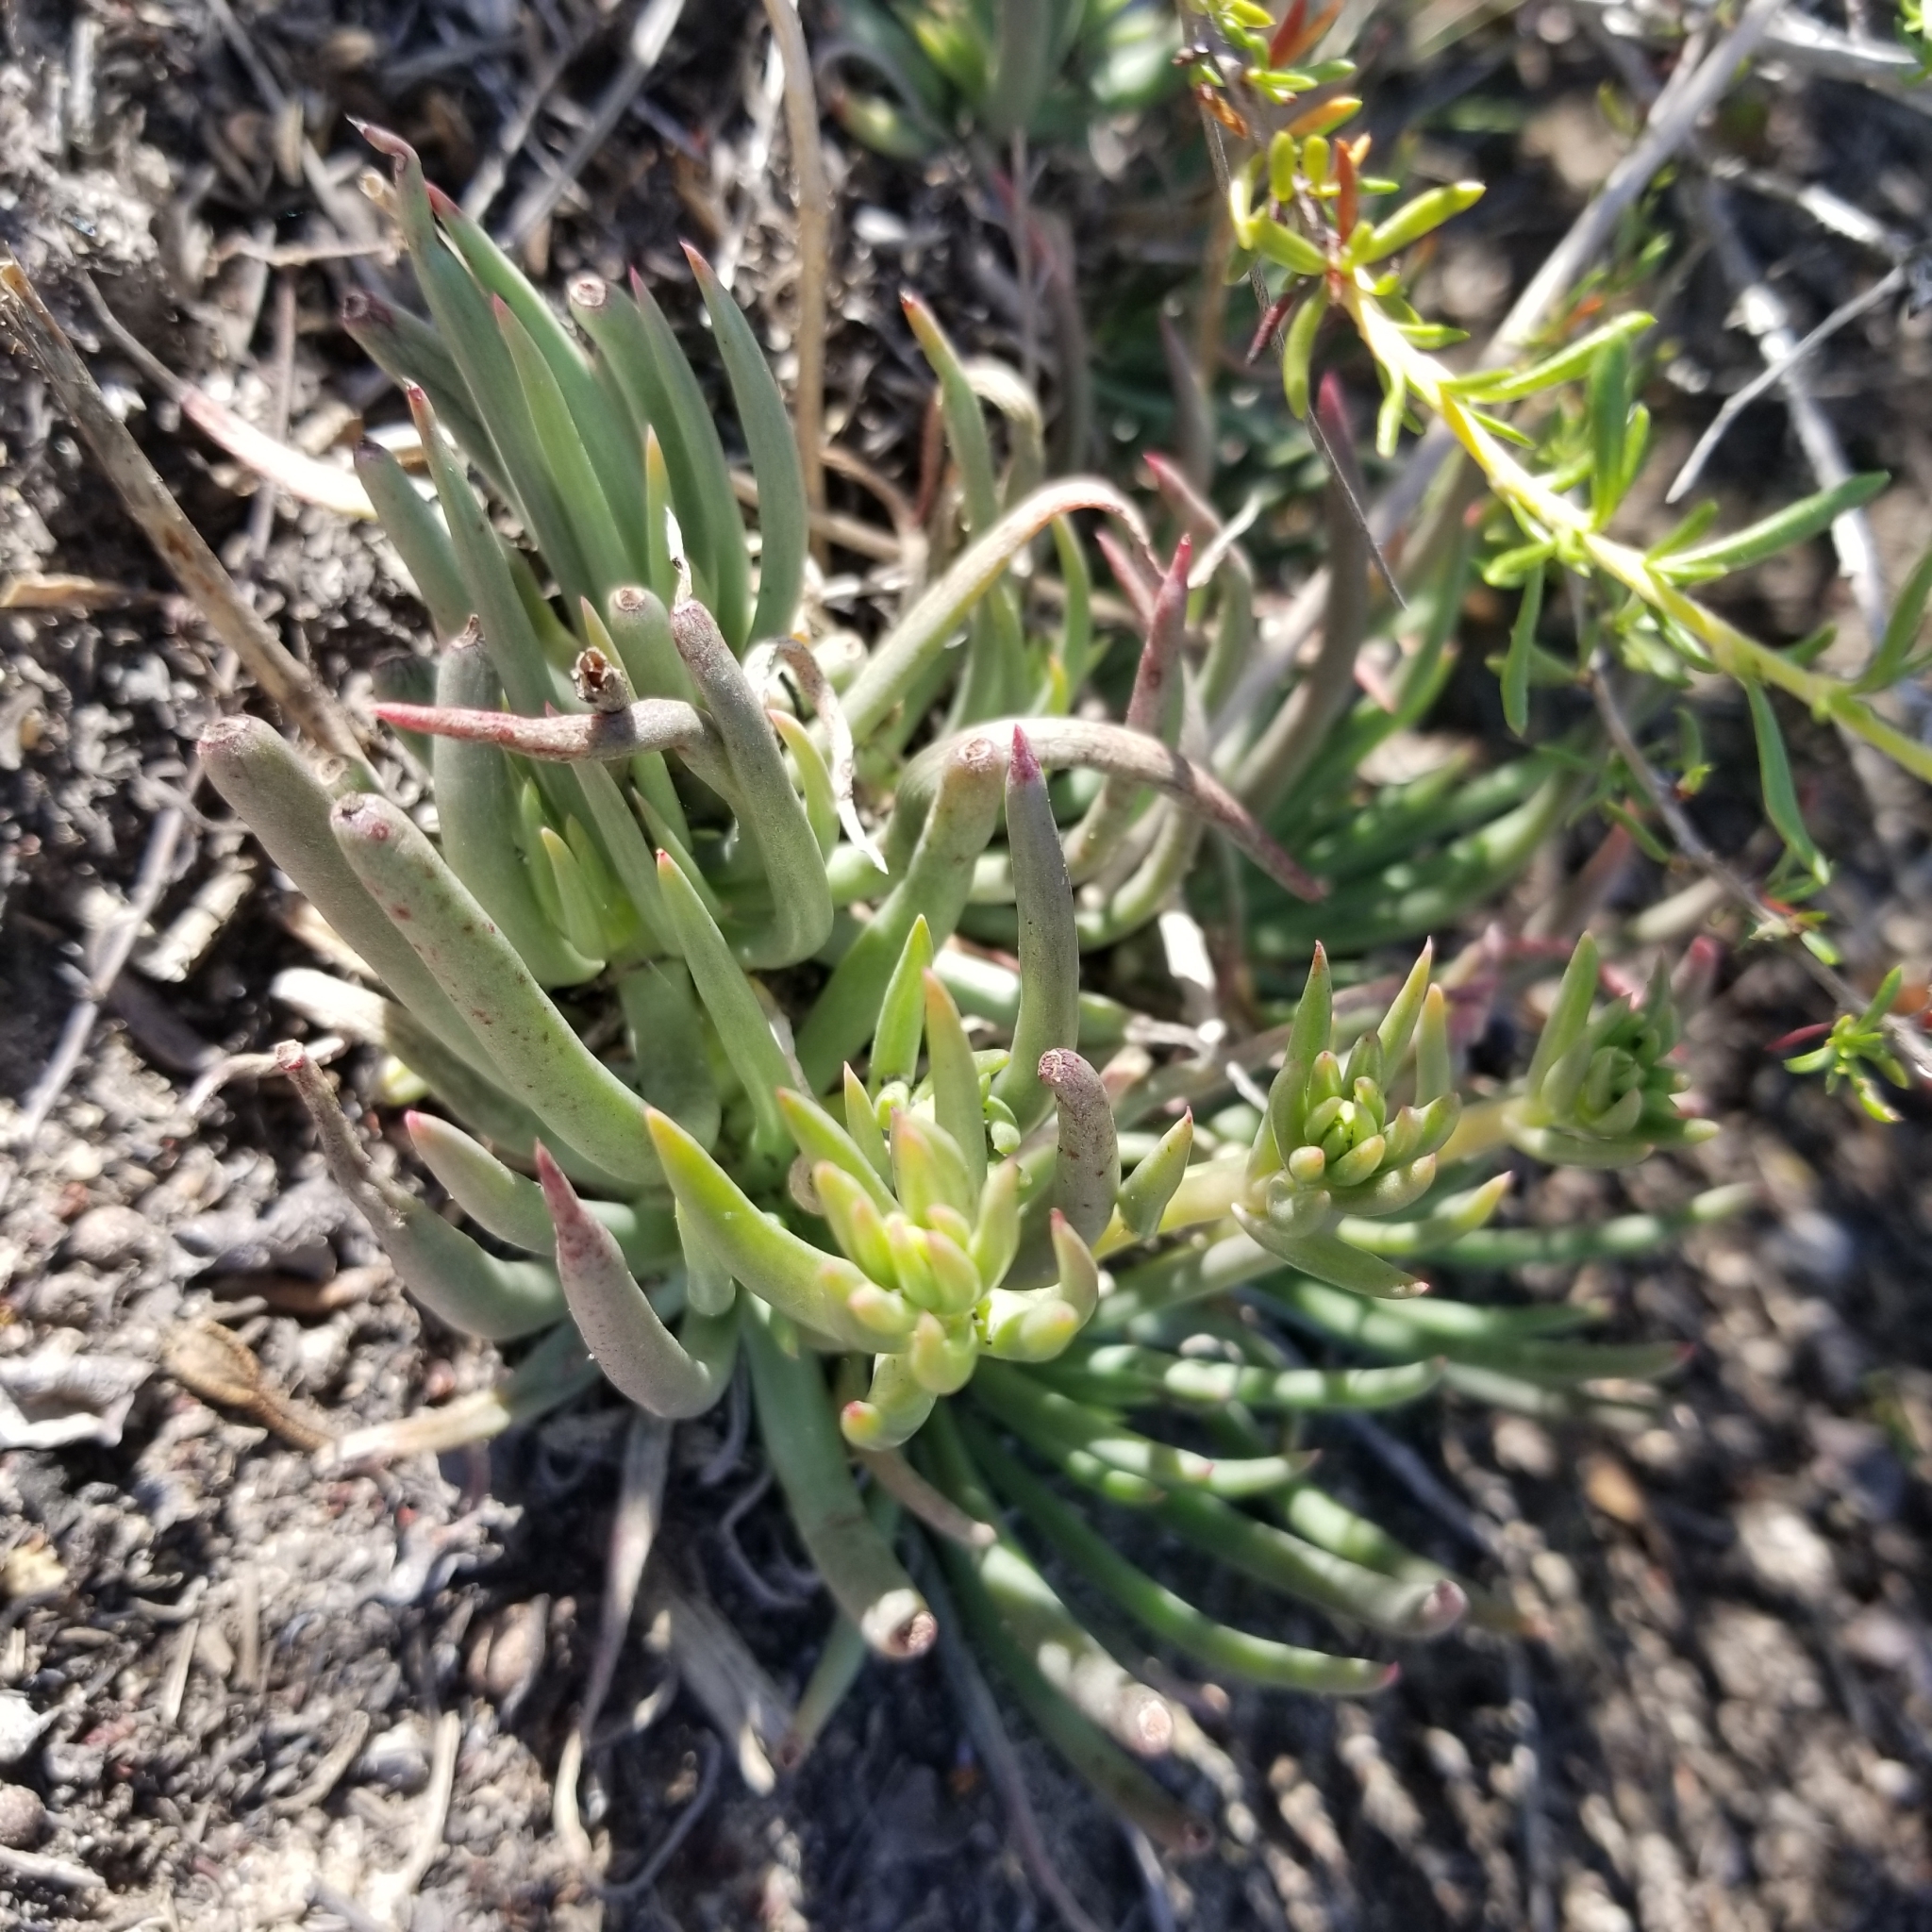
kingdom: Plantae
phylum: Tracheophyta
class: Magnoliopsida
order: Saxifragales
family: Crassulaceae
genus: Dudleya
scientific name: Dudleya edulis
